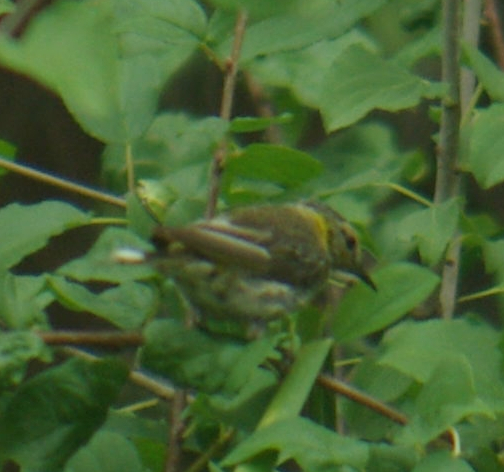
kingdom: Animalia
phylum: Chordata
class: Aves
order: Passeriformes
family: Parulidae
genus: Setophaga
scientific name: Setophaga tigrina
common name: Cape may warbler
